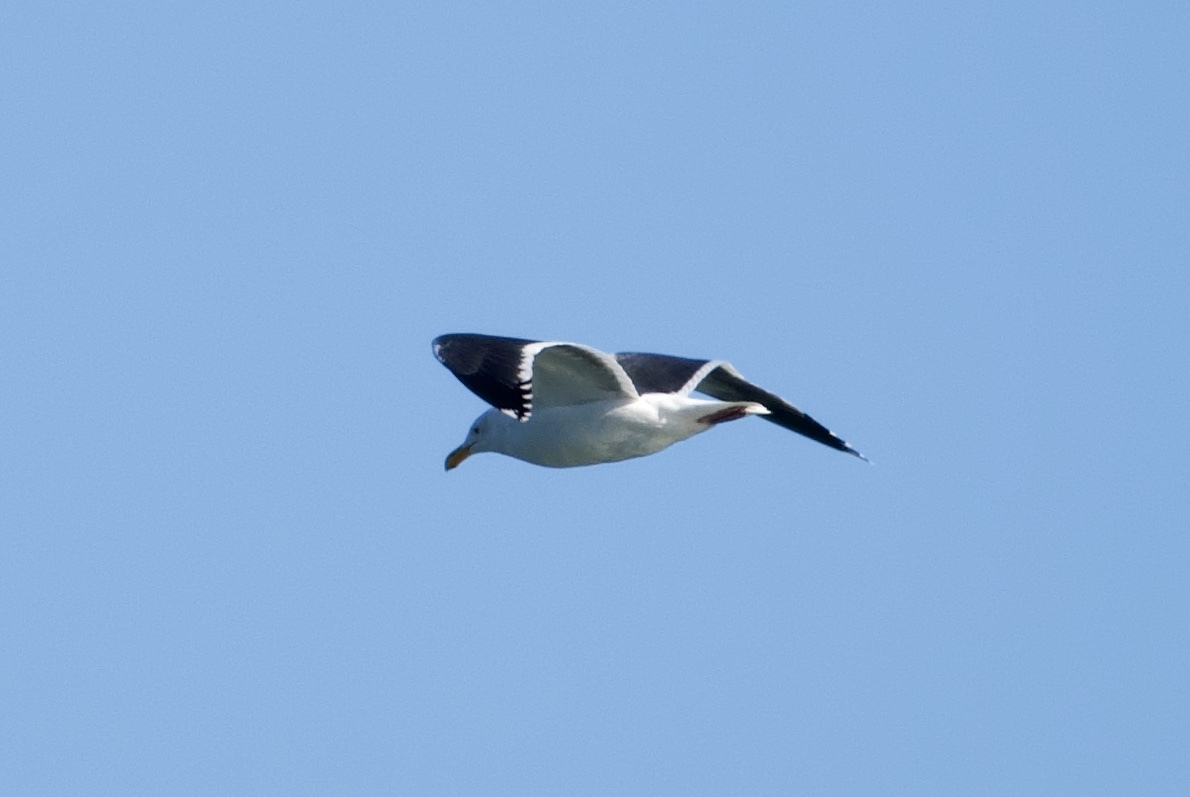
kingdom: Animalia
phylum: Chordata
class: Aves
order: Charadriiformes
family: Laridae
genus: Larus
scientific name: Larus occidentalis
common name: Western gull
